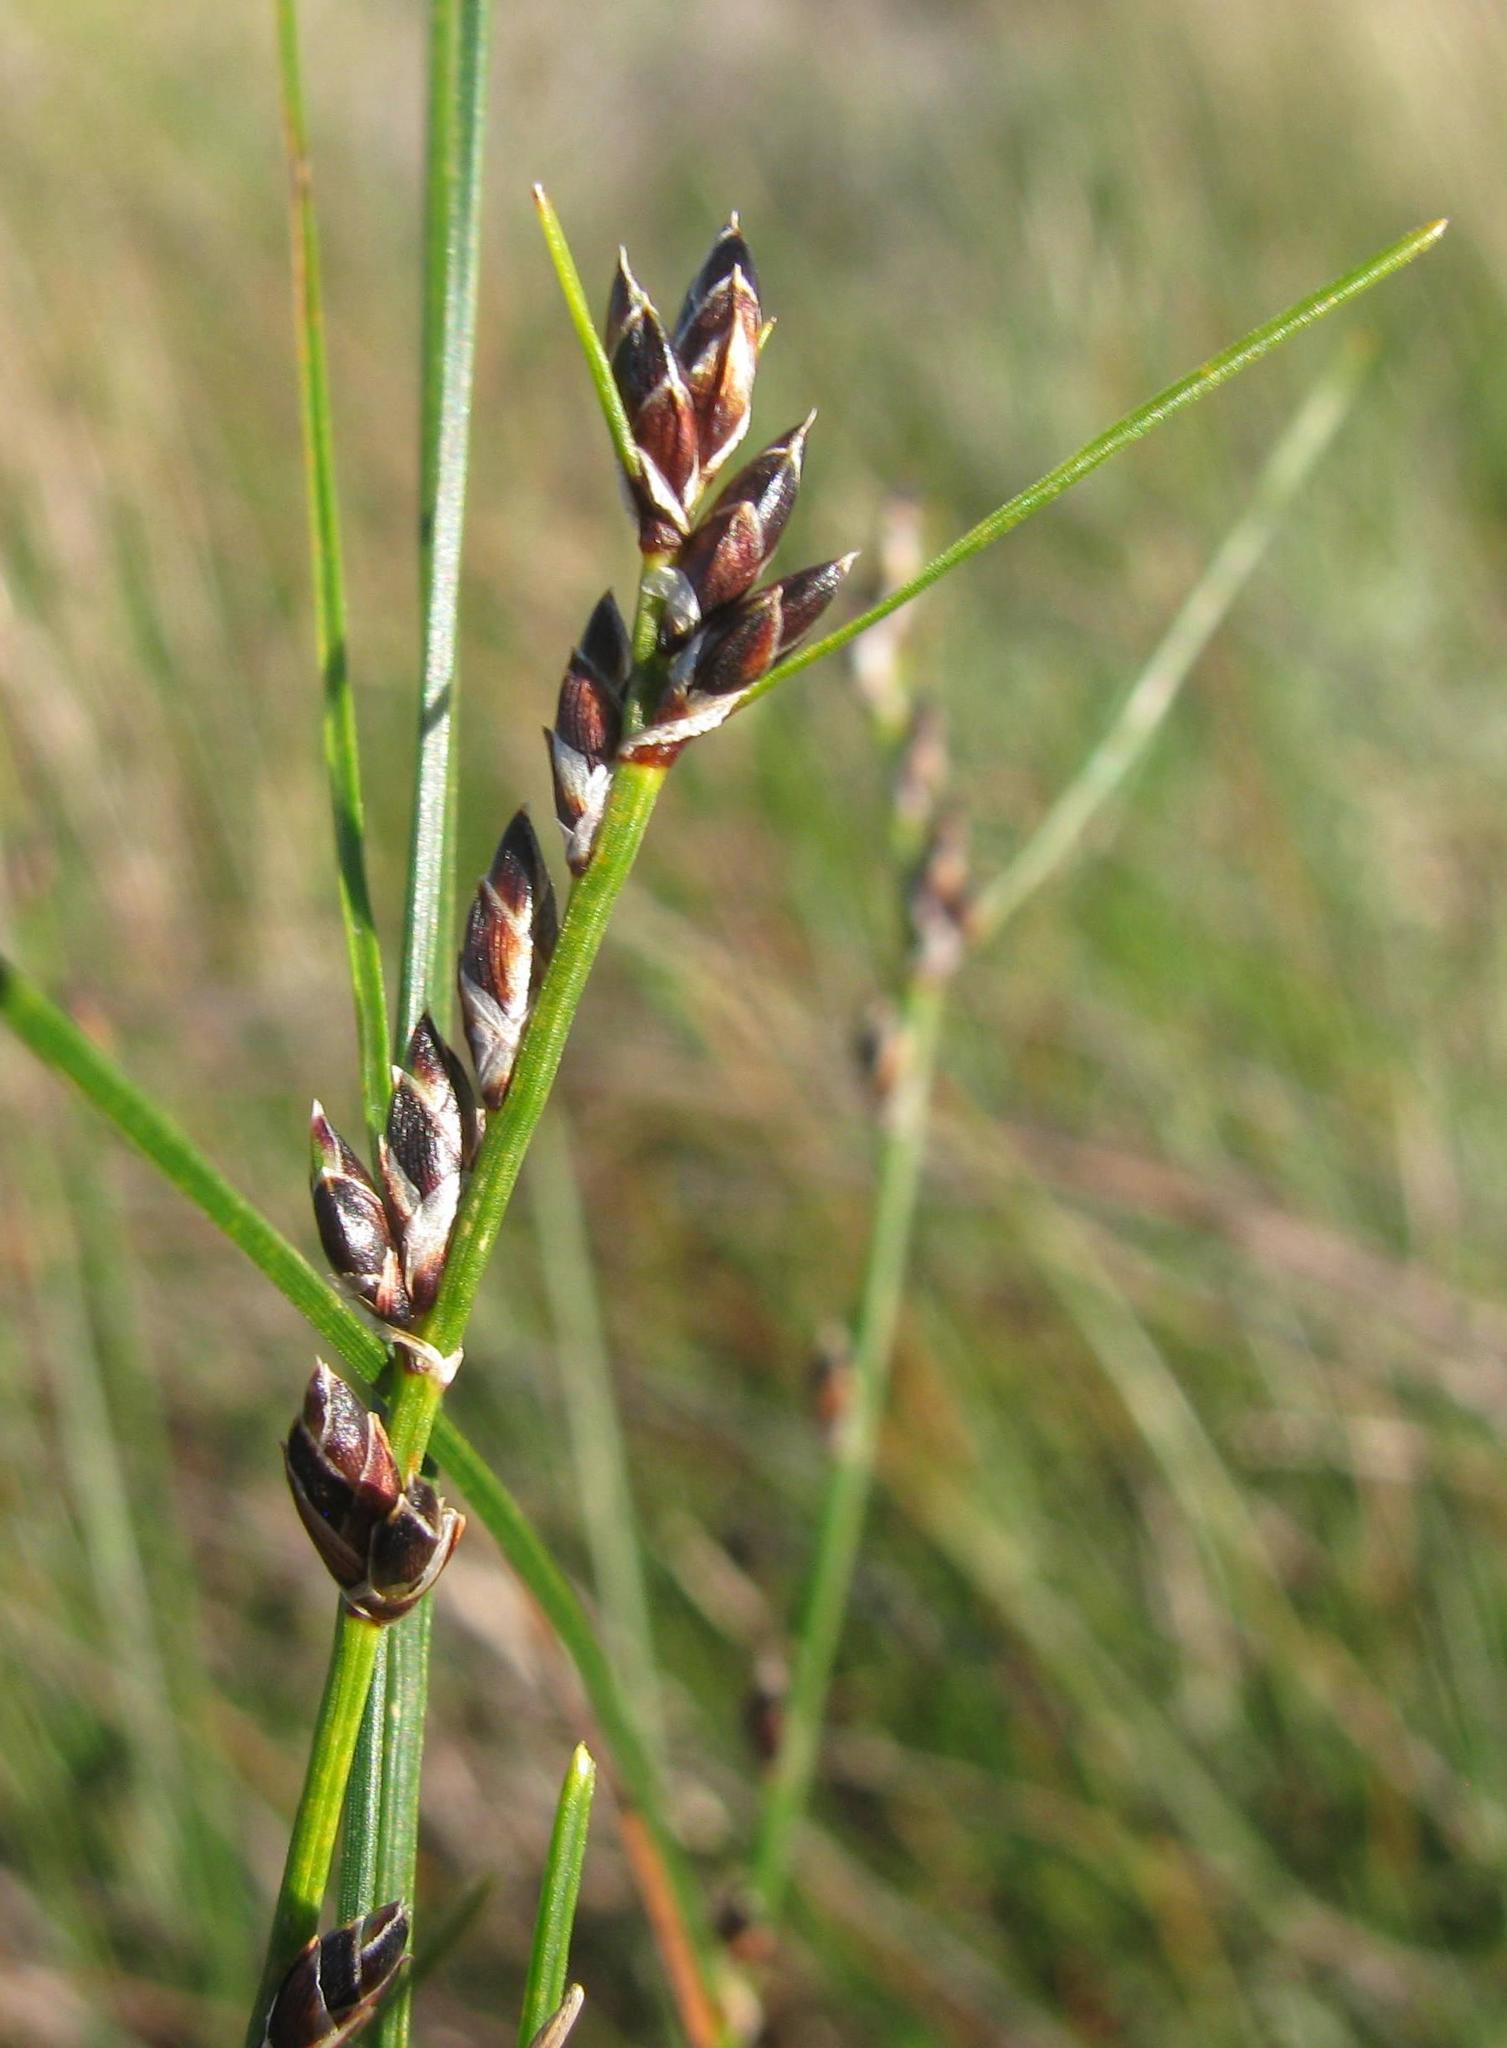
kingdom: Plantae
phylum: Tracheophyta
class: Liliopsida
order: Poales
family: Cyperaceae
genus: Ficinia
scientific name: Ficinia secunda
